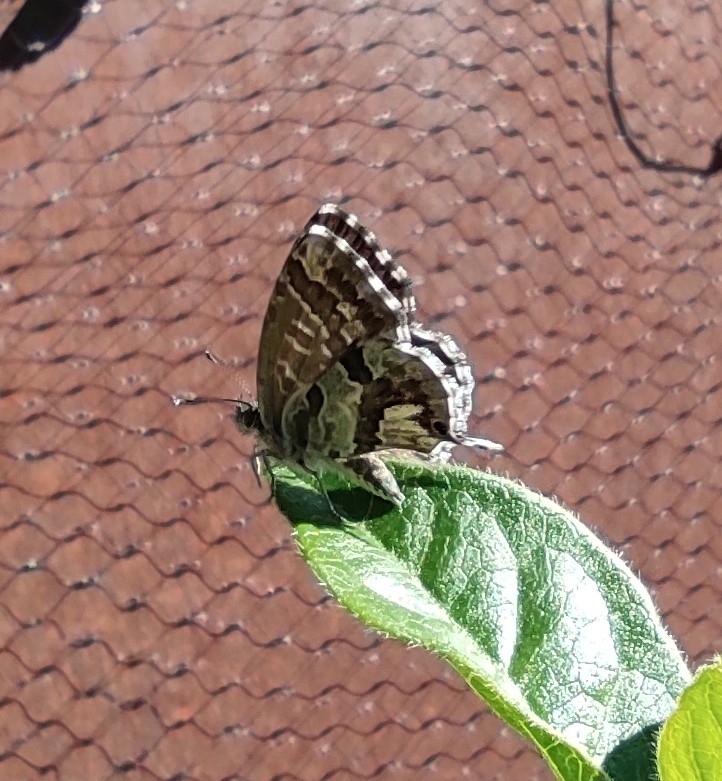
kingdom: Animalia
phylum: Arthropoda
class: Insecta
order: Lepidoptera
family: Lycaenidae
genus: Cacyreus
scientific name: Cacyreus marshalli
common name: Geranium bronze
